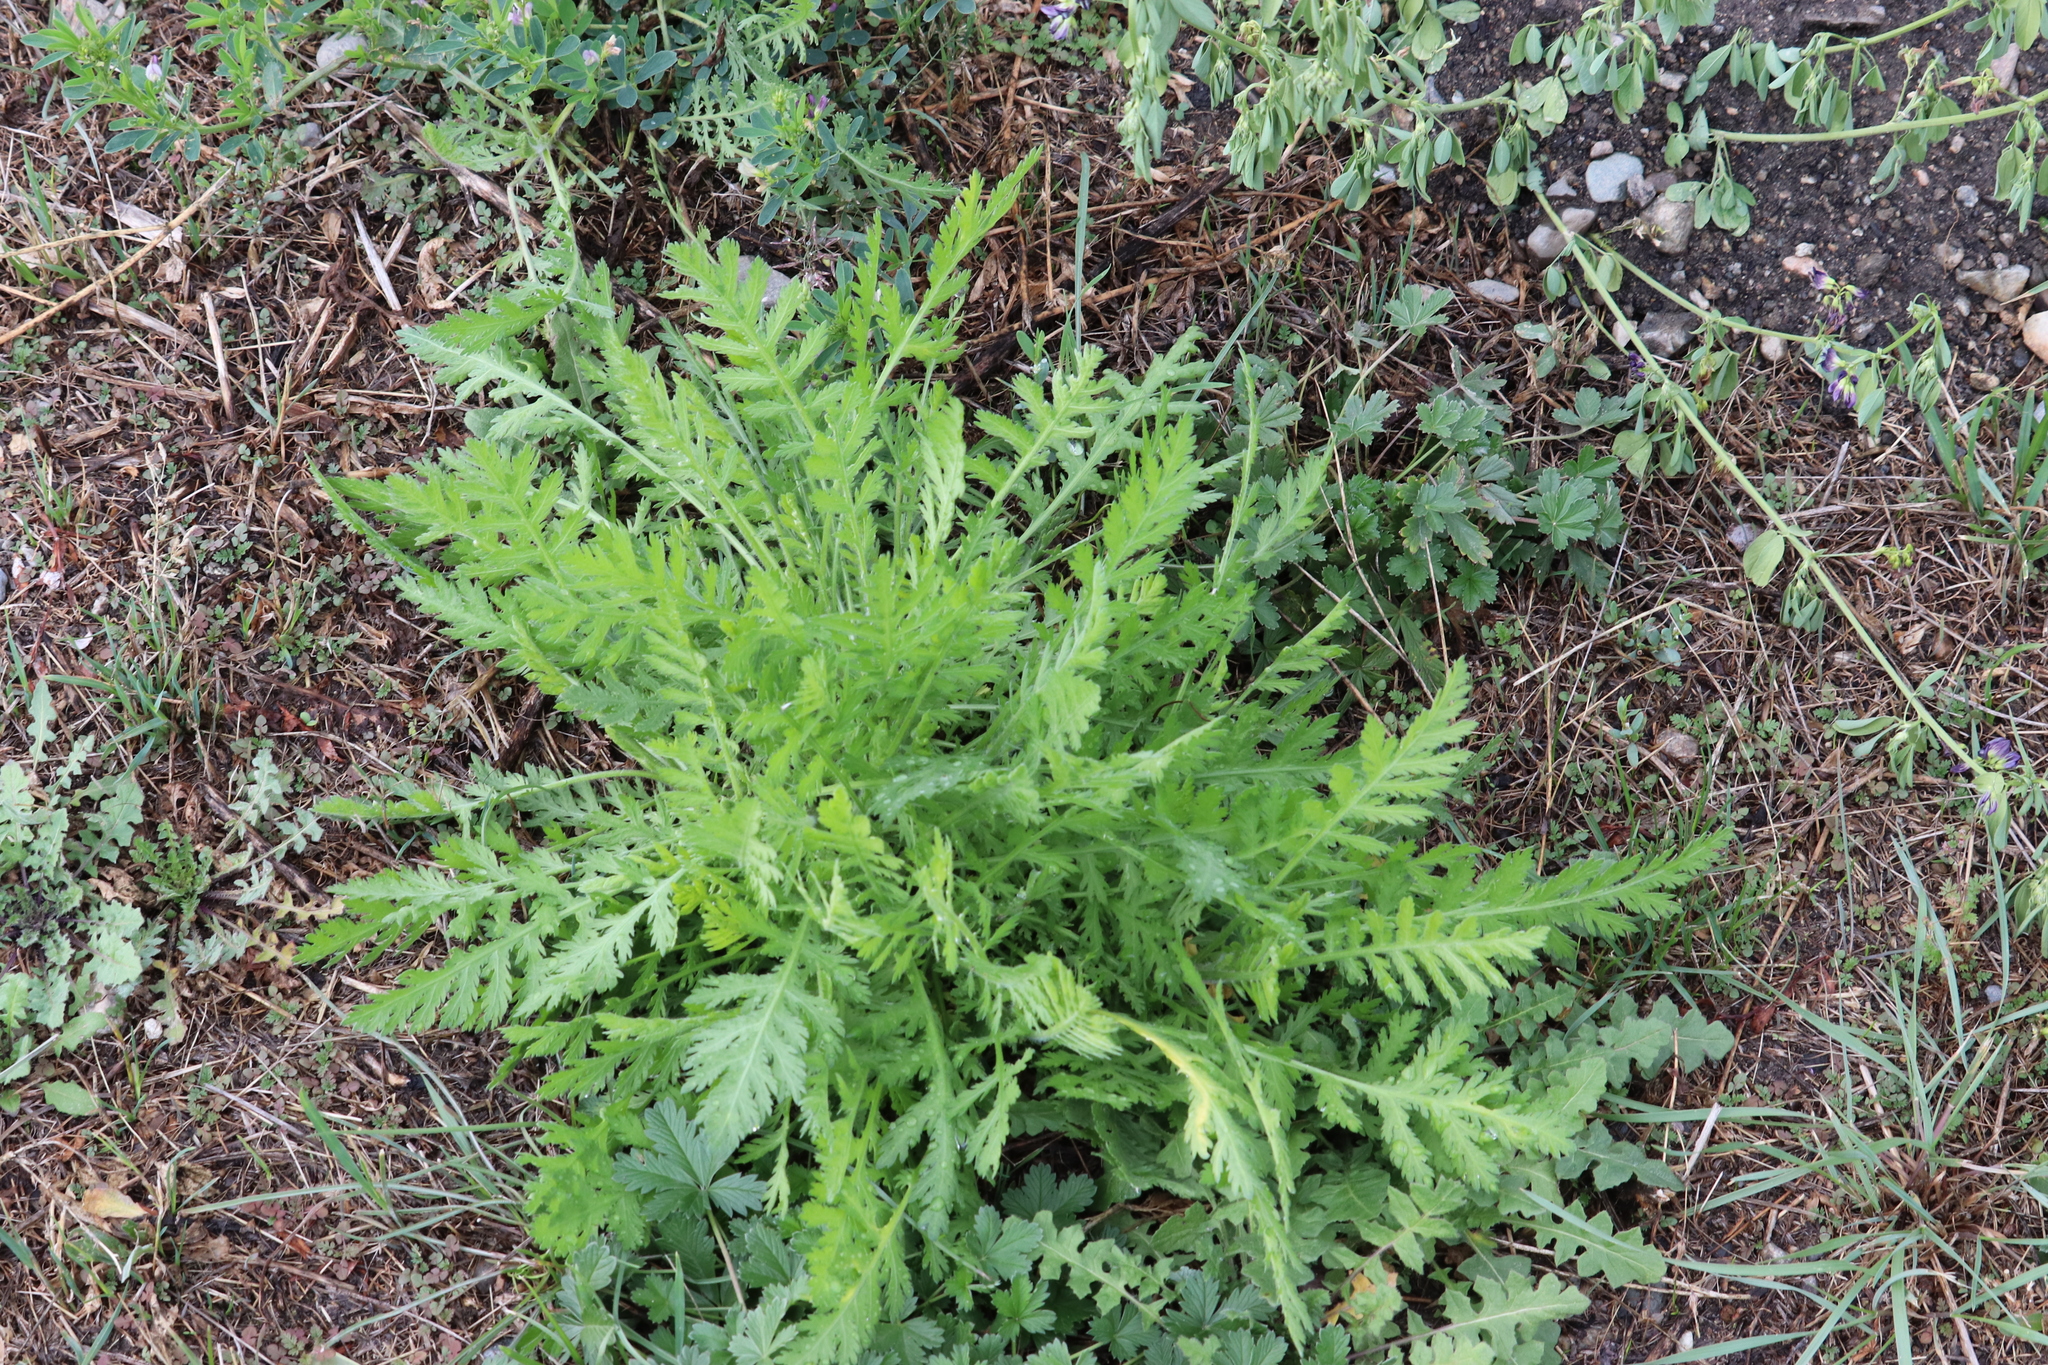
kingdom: Plantae
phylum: Tracheophyta
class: Magnoliopsida
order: Asterales
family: Asteraceae
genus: Tanacetum
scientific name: Tanacetum vulgare
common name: Common tansy
